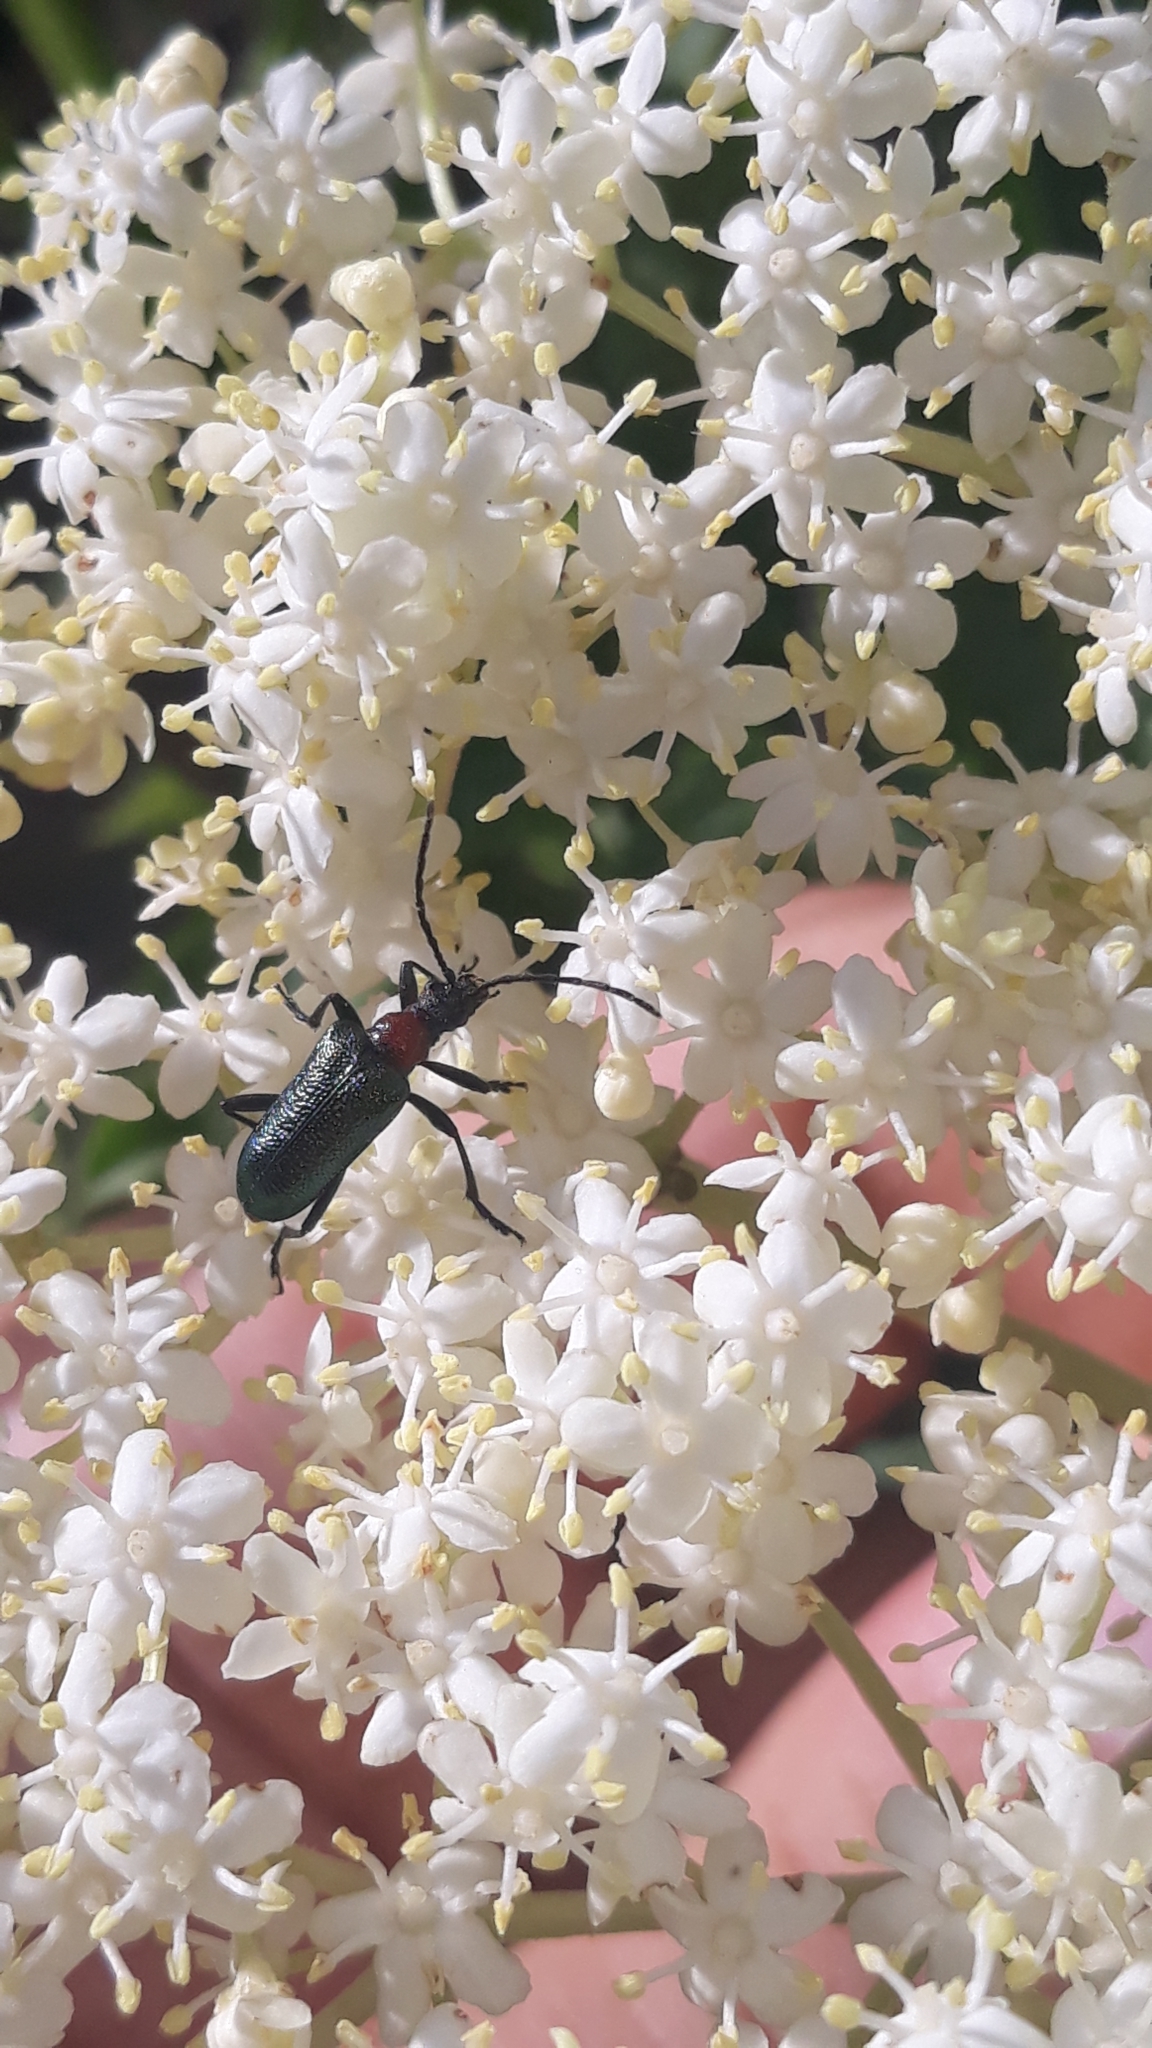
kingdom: Animalia
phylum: Arthropoda
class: Insecta
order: Coleoptera
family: Cerambycidae
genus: Gaurotes
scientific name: Gaurotes virginea
